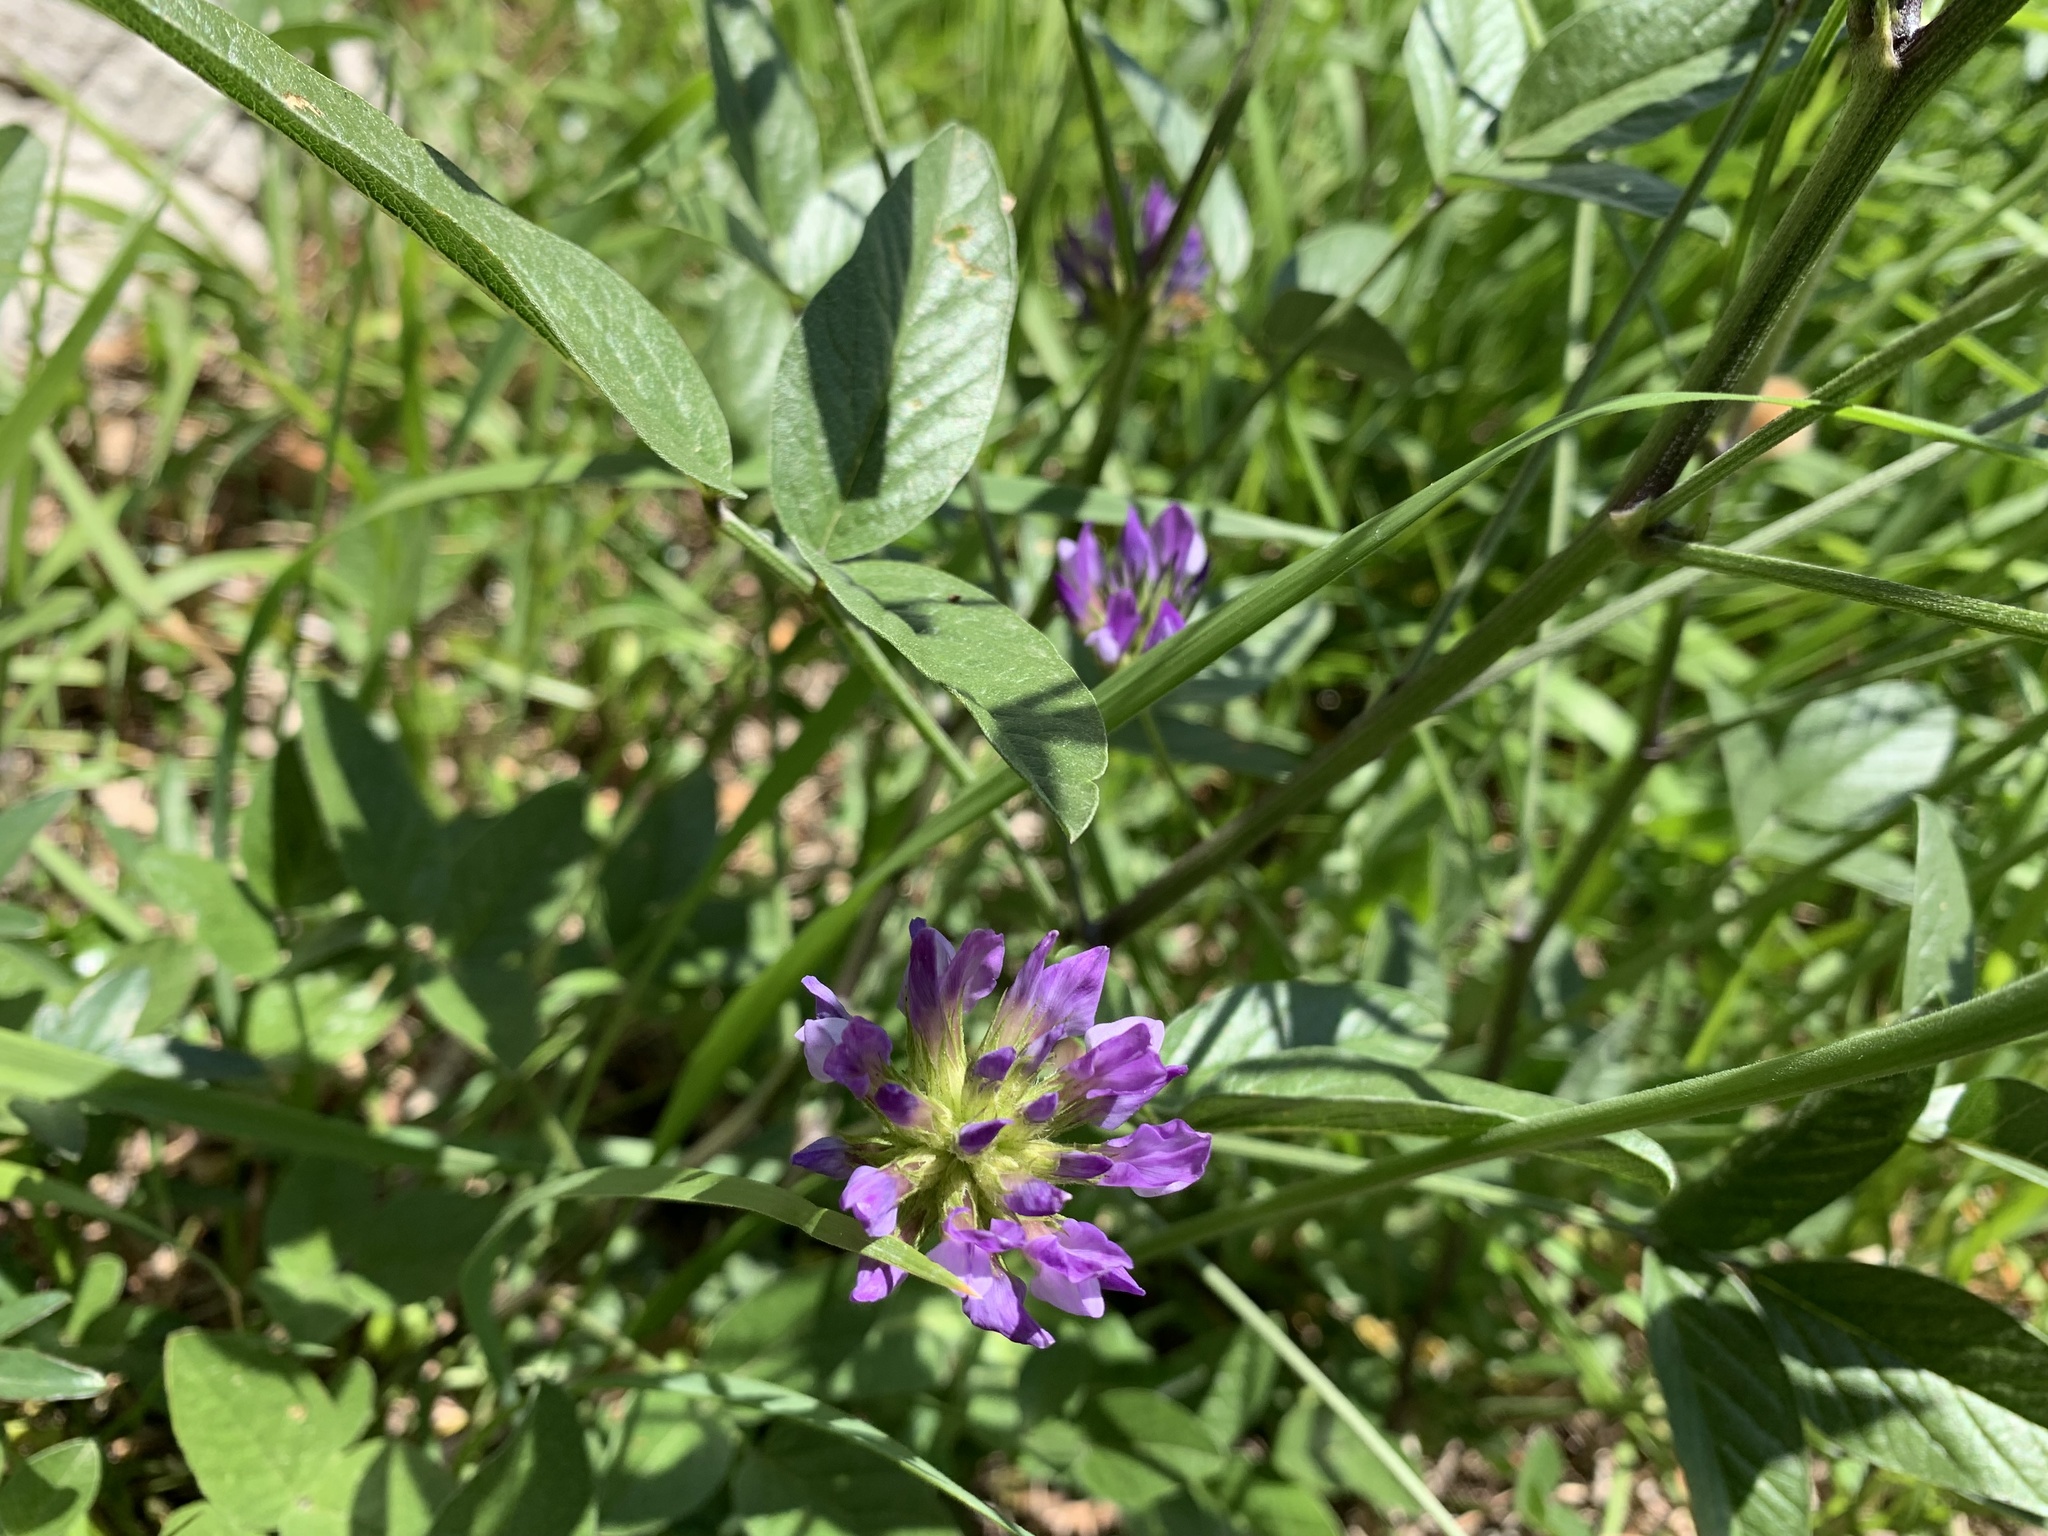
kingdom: Plantae
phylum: Tracheophyta
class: Magnoliopsida
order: Fabales
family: Fabaceae
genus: Bituminaria
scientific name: Bituminaria bituminosa
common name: Arabian pea
